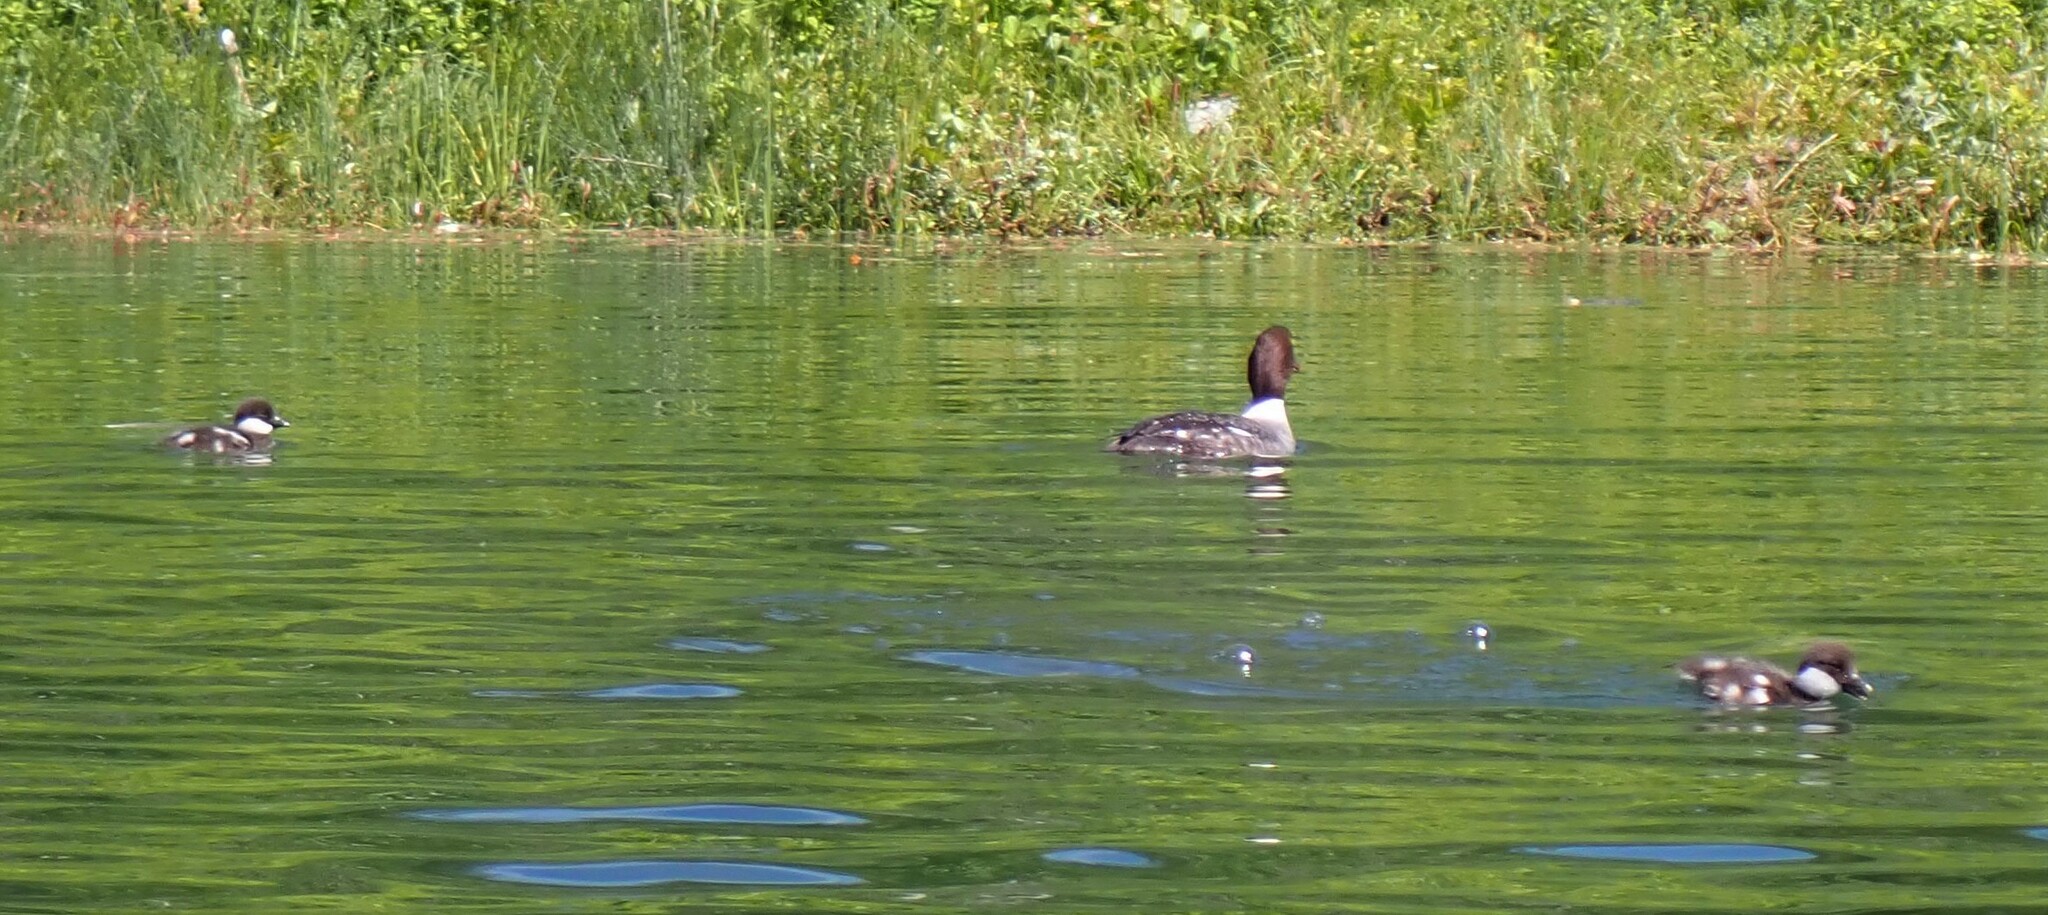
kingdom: Animalia
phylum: Chordata
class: Aves
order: Anseriformes
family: Anatidae
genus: Bucephala
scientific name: Bucephala islandica
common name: Barrow's goldeneye
